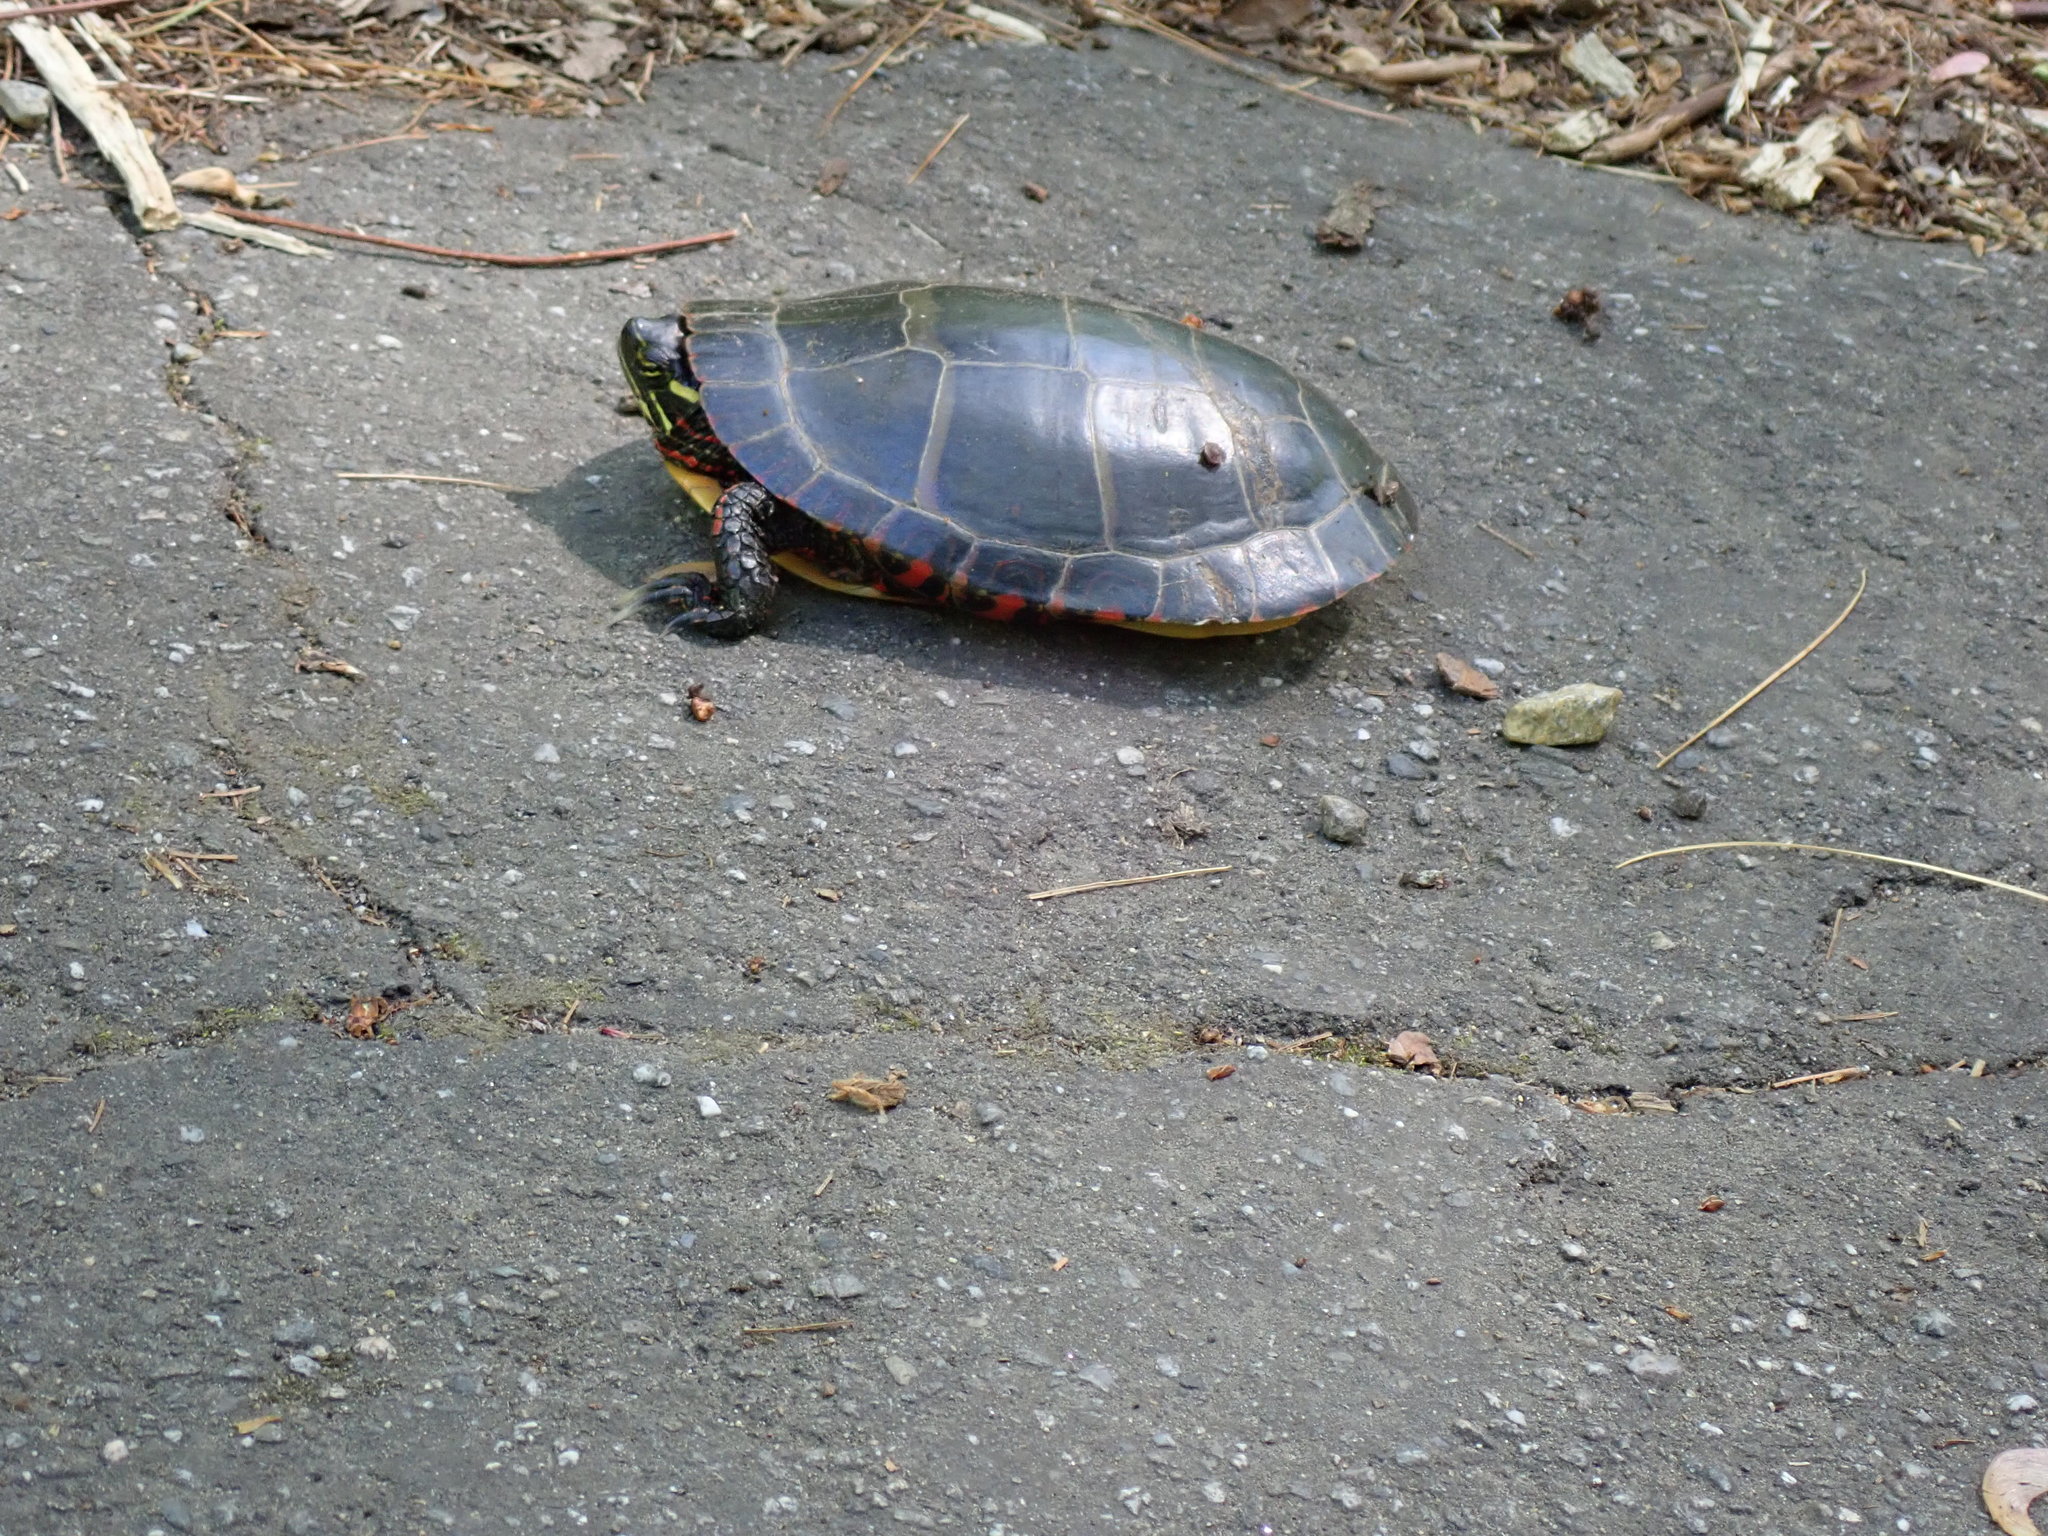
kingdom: Animalia
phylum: Chordata
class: Testudines
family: Emydidae
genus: Chrysemys
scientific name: Chrysemys picta
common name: Painted turtle
